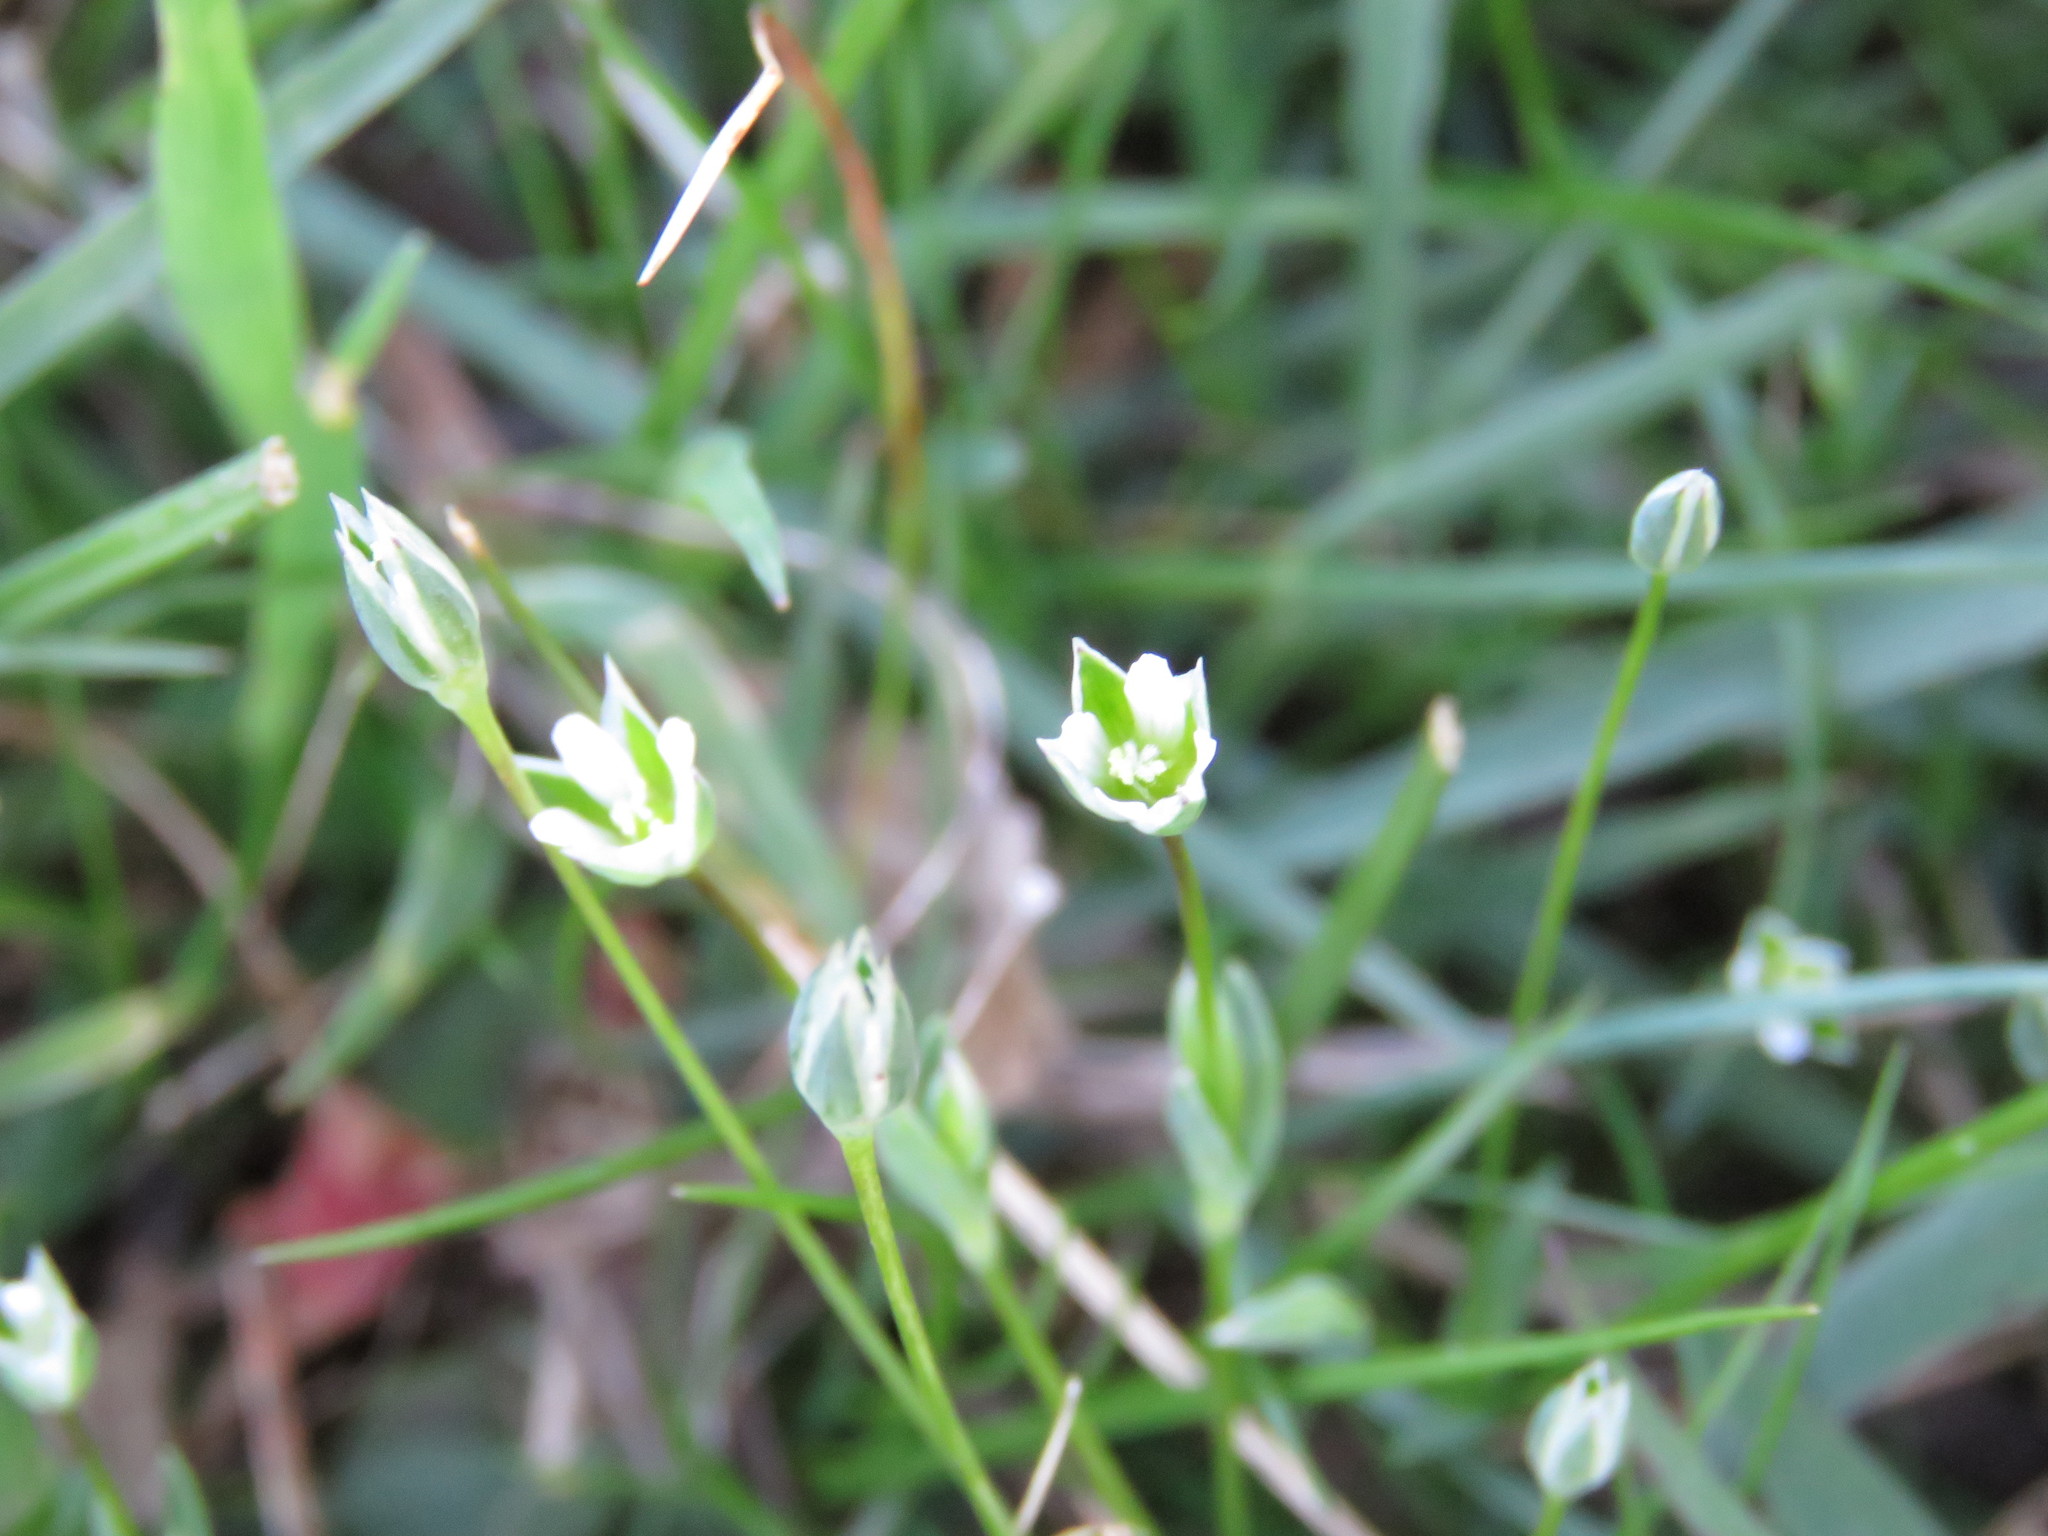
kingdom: Plantae
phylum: Tracheophyta
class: Magnoliopsida
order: Caryophyllales
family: Caryophyllaceae
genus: Moenchia
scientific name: Moenchia erecta
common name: Upright chickweed
